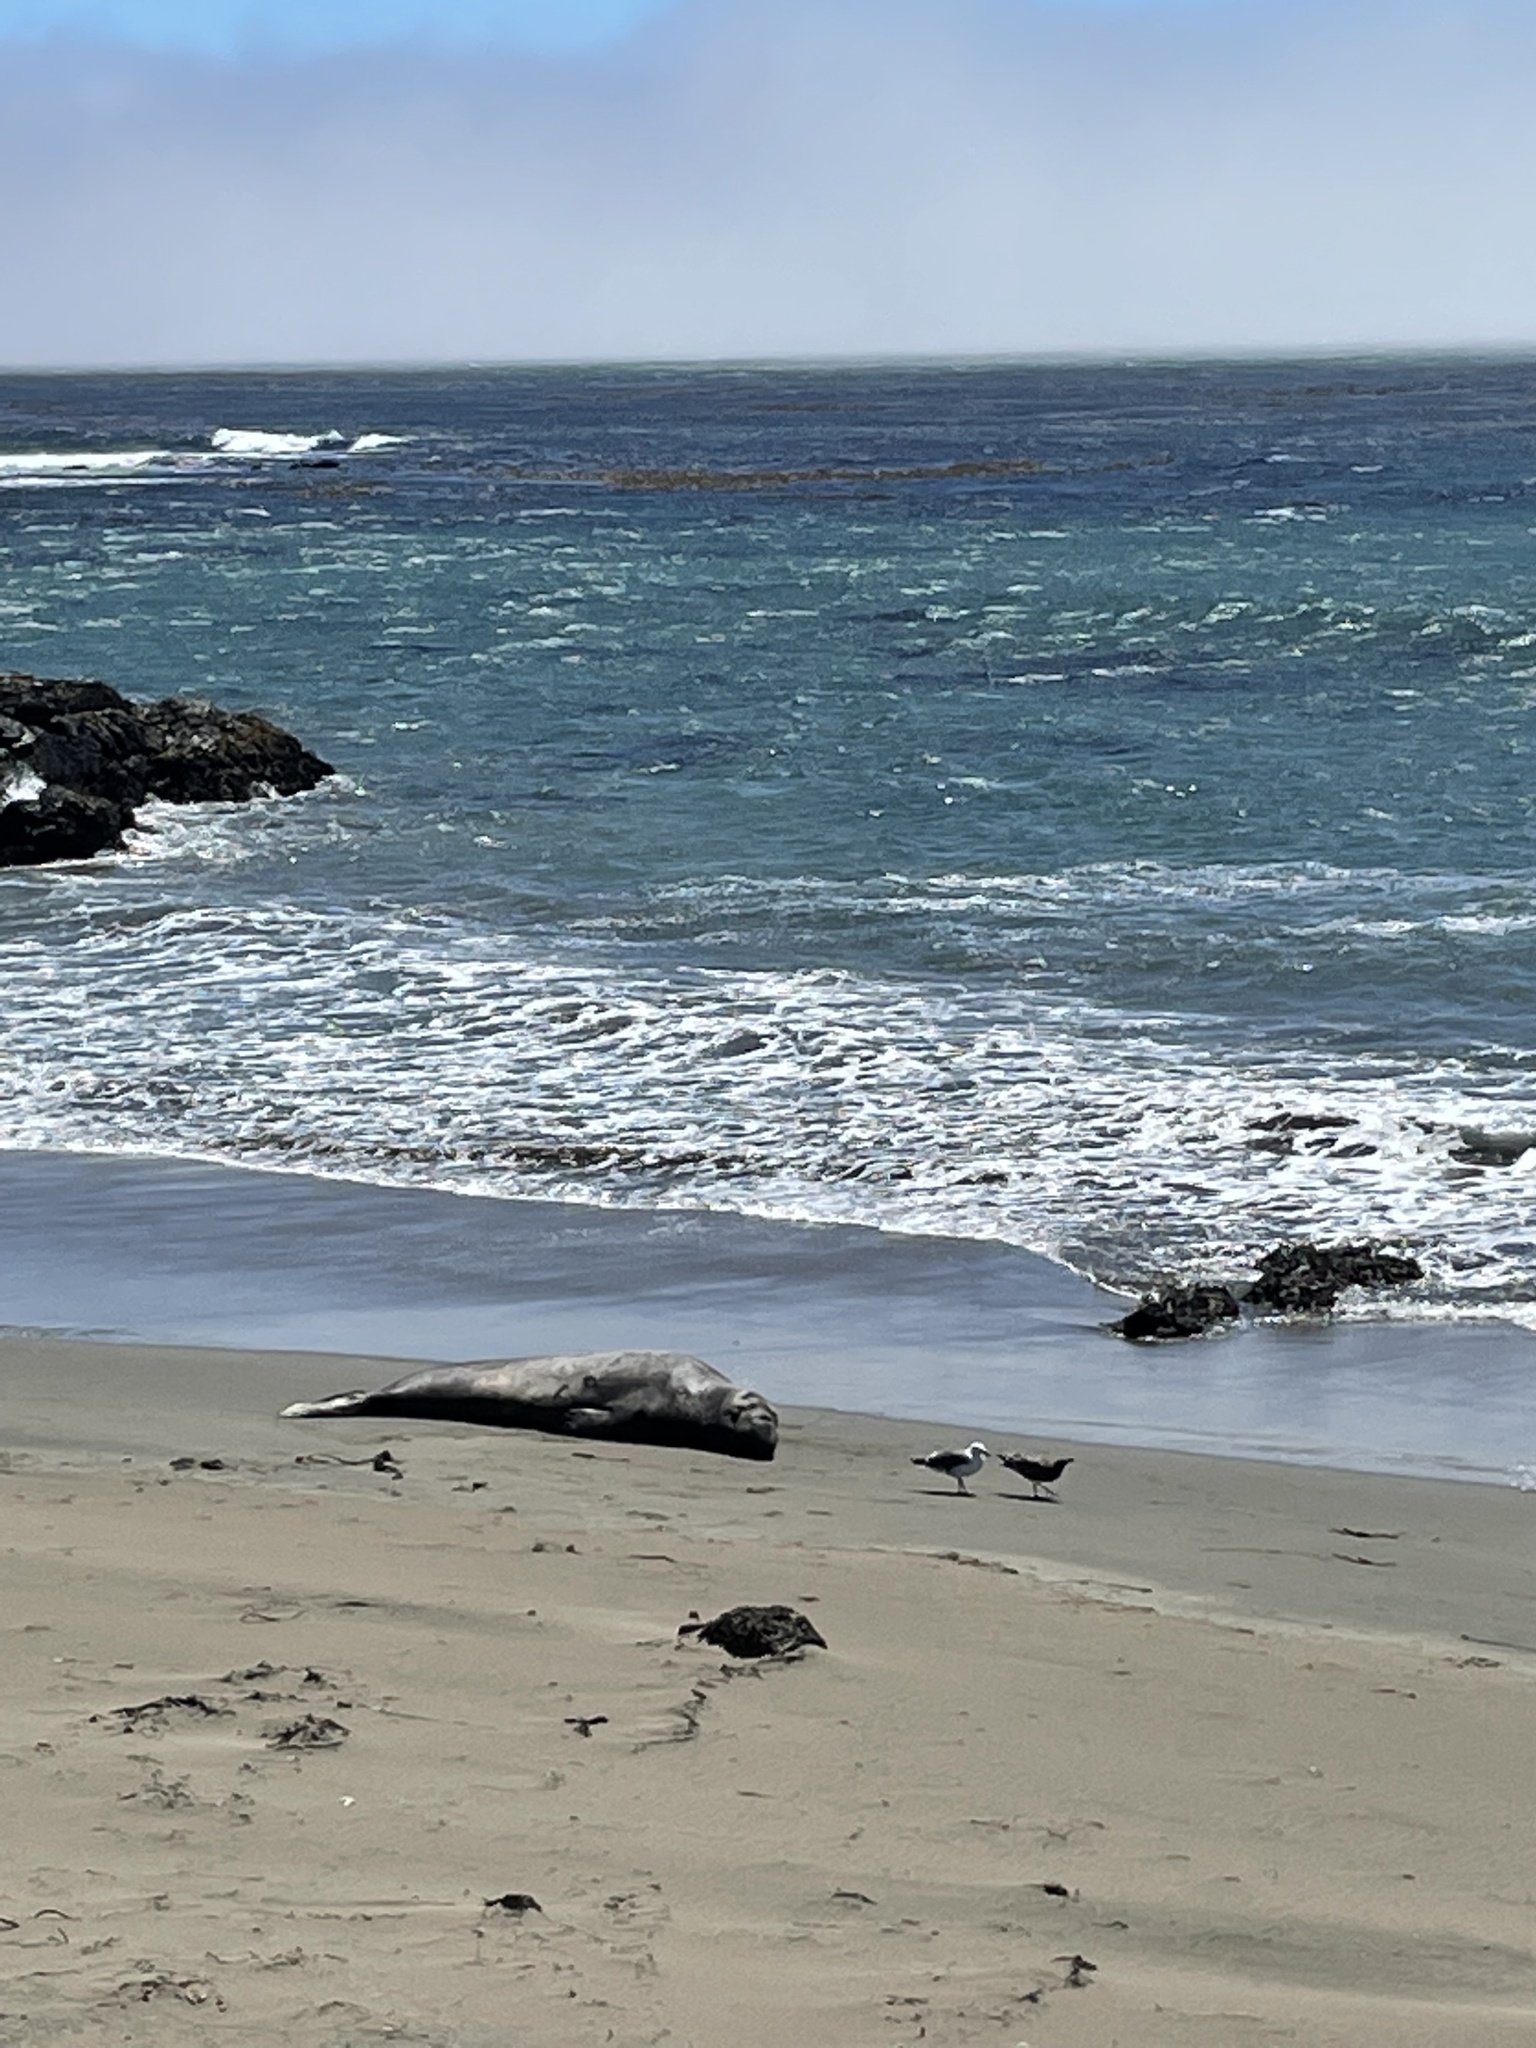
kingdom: Animalia
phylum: Chordata
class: Mammalia
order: Carnivora
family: Phocidae
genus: Mirounga
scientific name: Mirounga angustirostris
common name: Northern elephant seal
